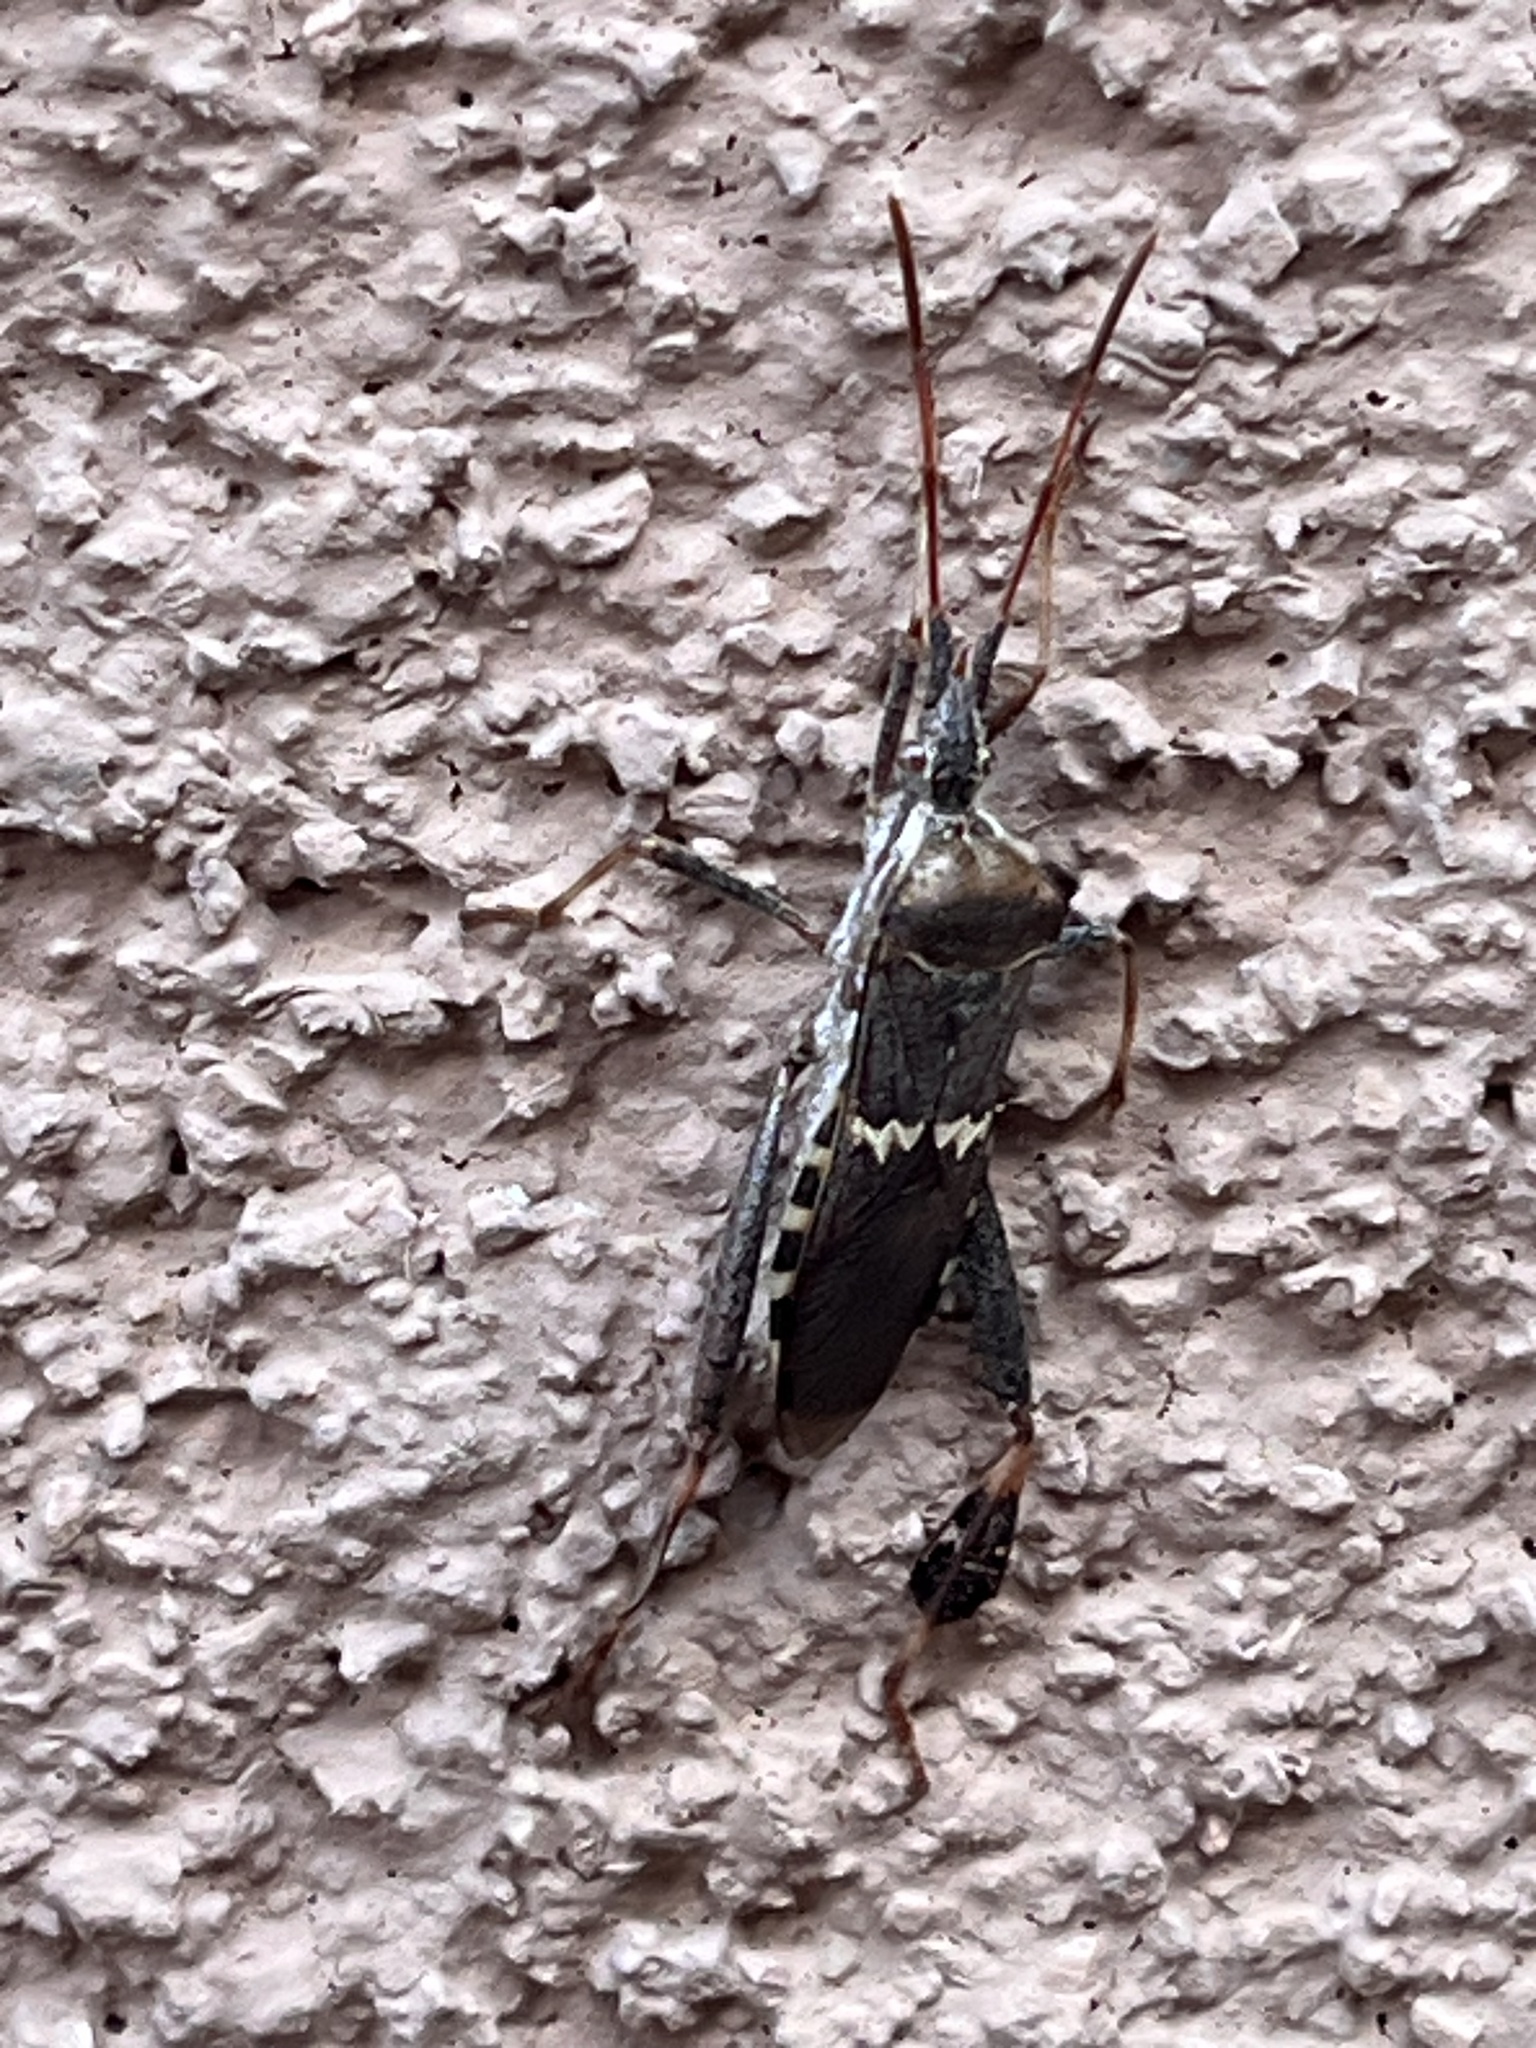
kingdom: Animalia
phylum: Arthropoda
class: Insecta
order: Hemiptera
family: Coreidae
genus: Leptoglossus
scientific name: Leptoglossus clypealis
